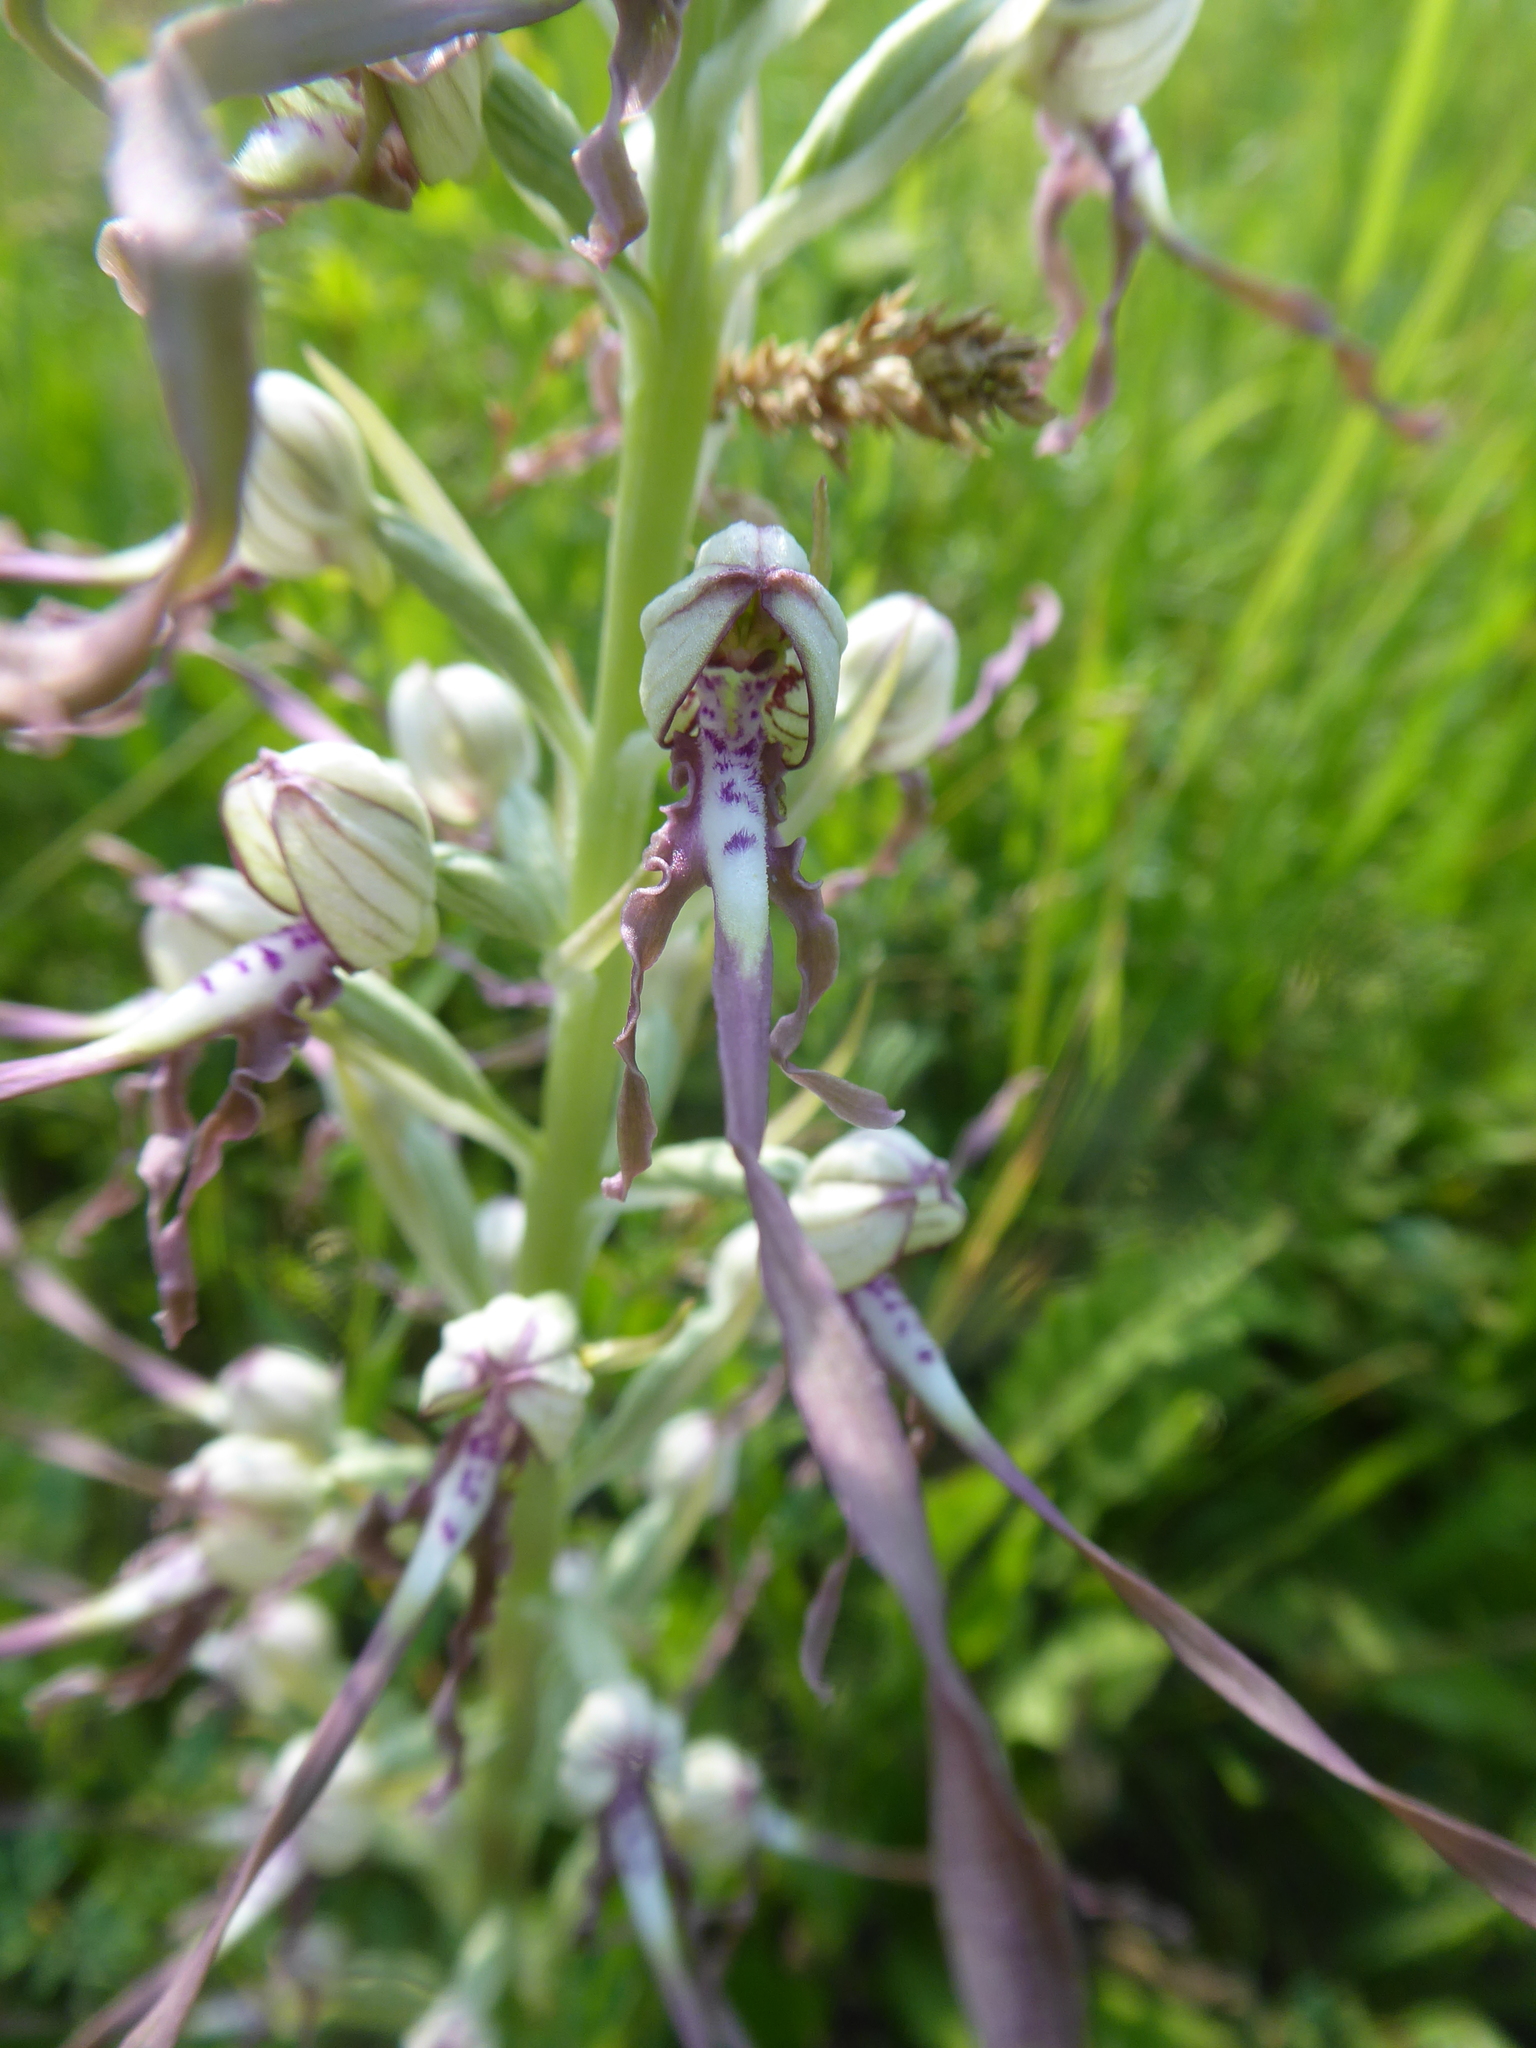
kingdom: Plantae
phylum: Tracheophyta
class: Liliopsida
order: Asparagales
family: Orchidaceae
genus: Himantoglossum
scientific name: Himantoglossum adriaticum
